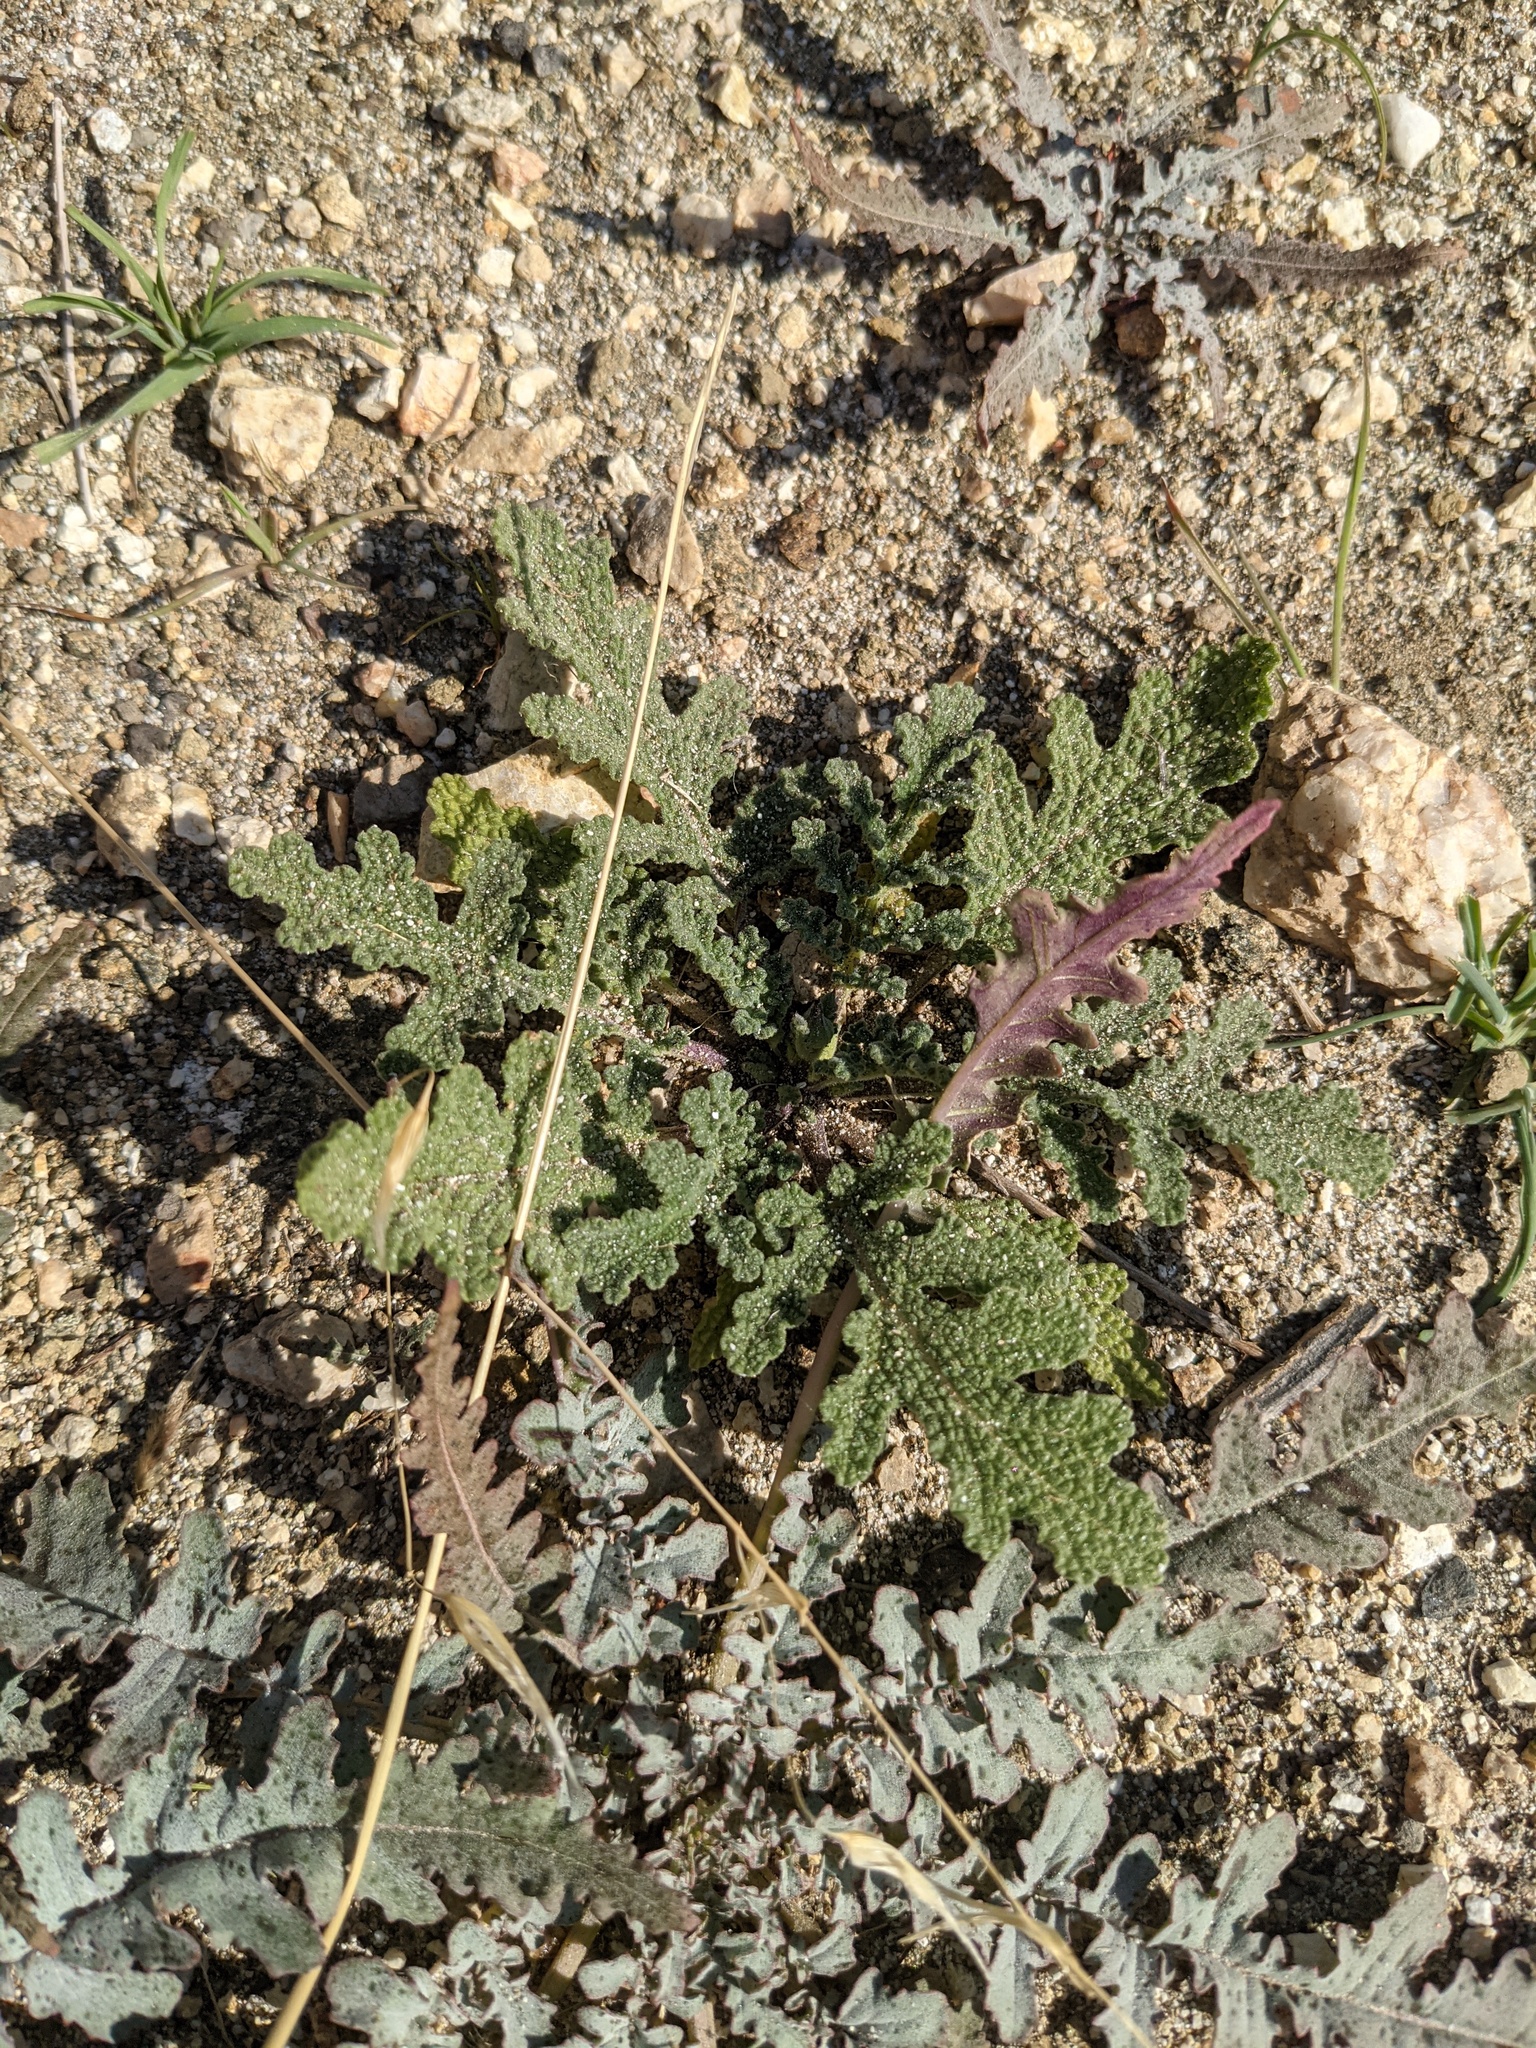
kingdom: Plantae
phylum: Tracheophyta
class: Magnoliopsida
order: Lamiales
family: Lamiaceae
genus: Salvia
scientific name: Salvia columbariae
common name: Chia
